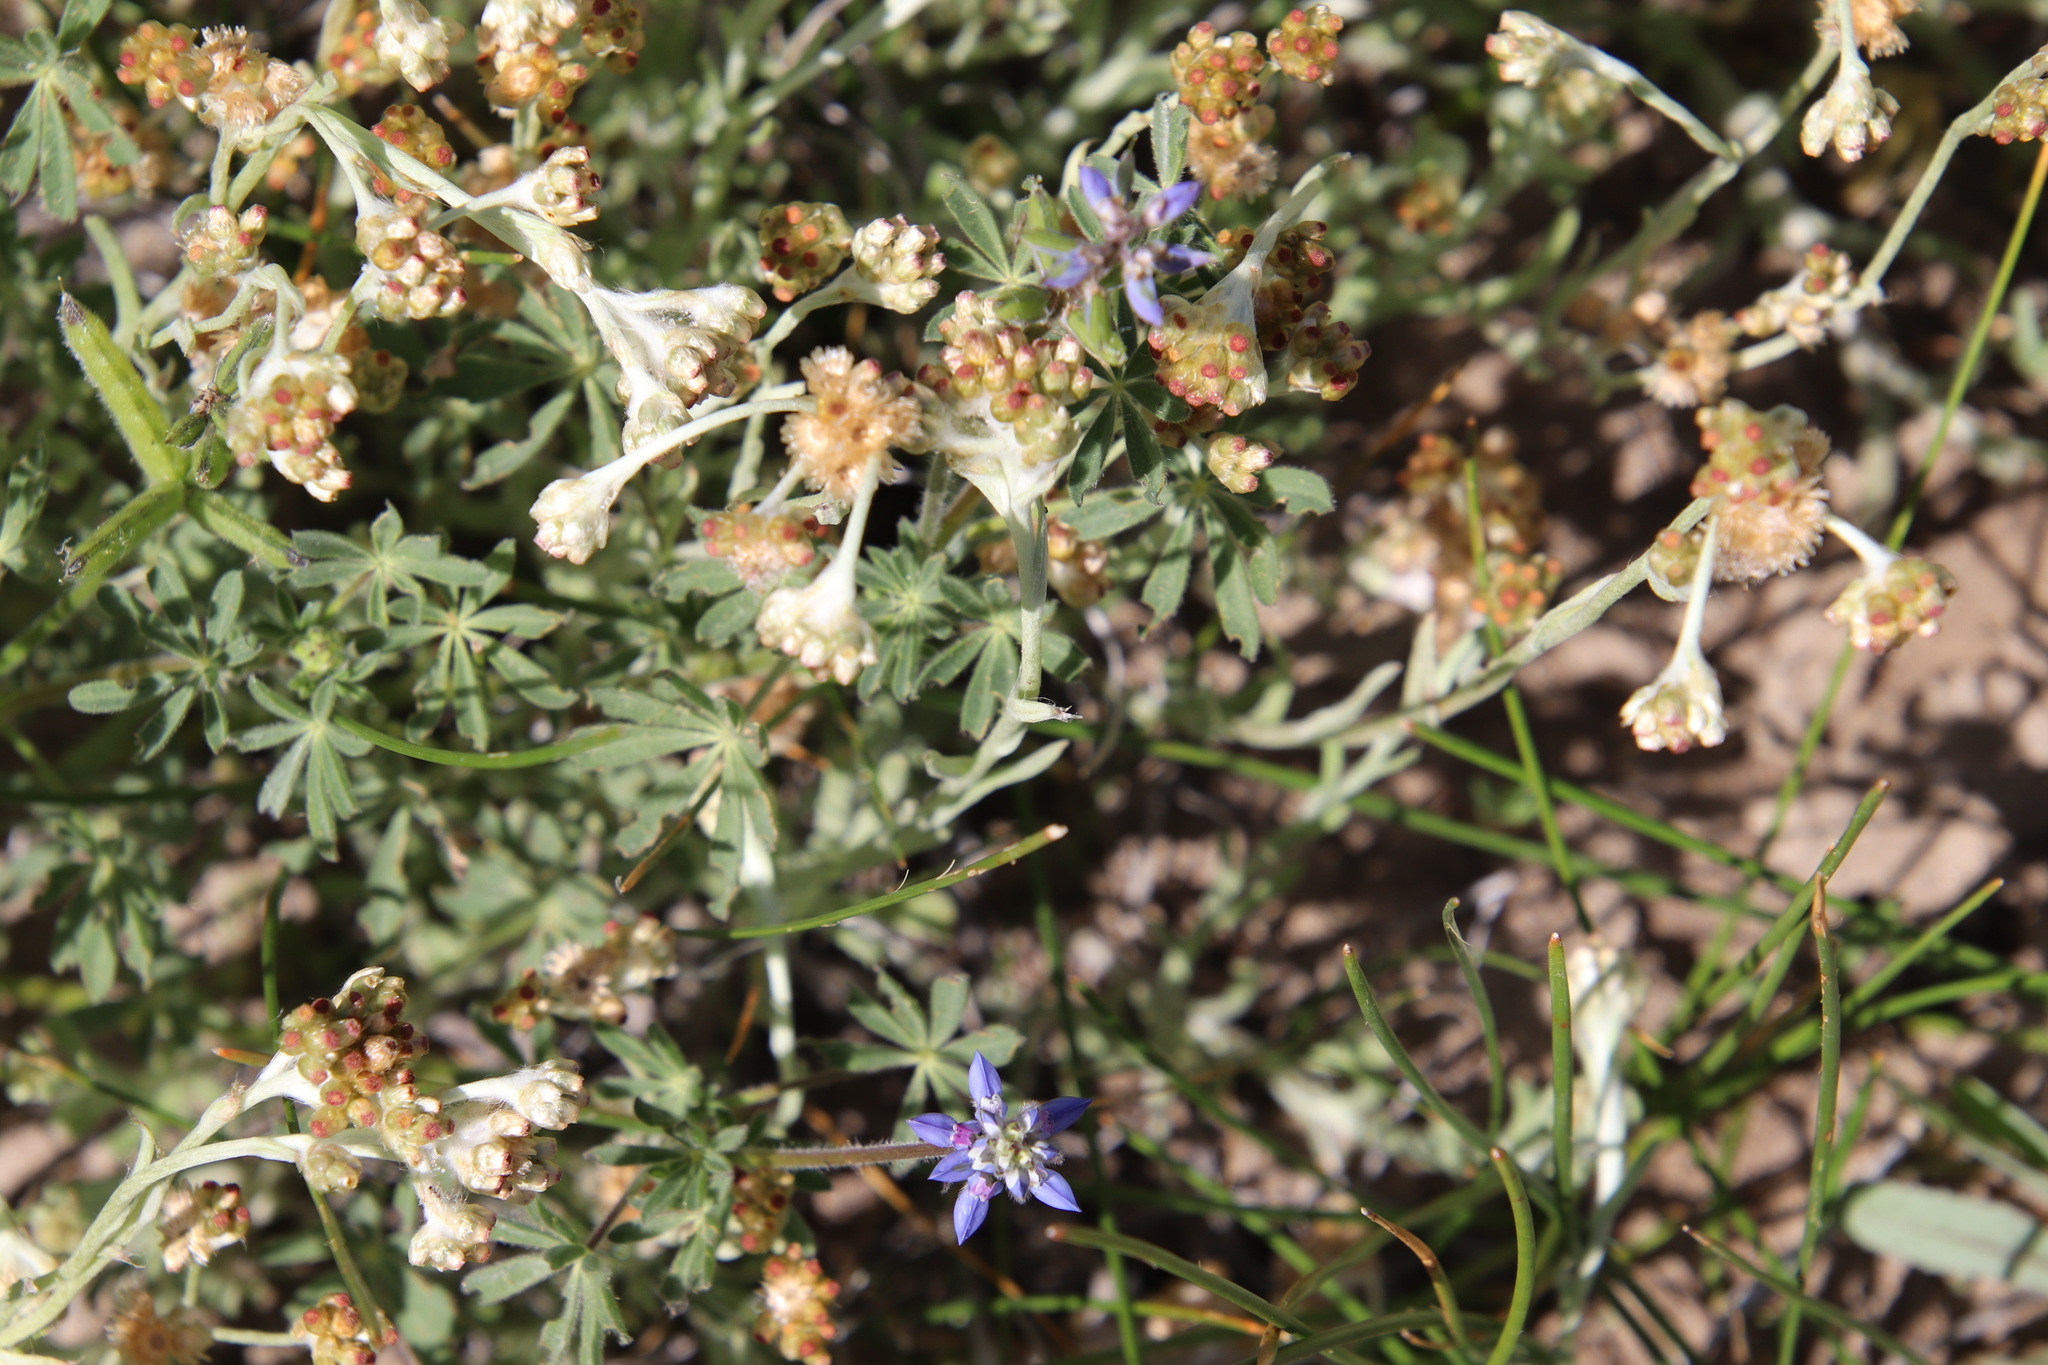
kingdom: Plantae
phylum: Tracheophyta
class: Magnoliopsida
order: Fabales
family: Fabaceae
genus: Lupinus
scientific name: Lupinus bicolor
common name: Miniature lupine
